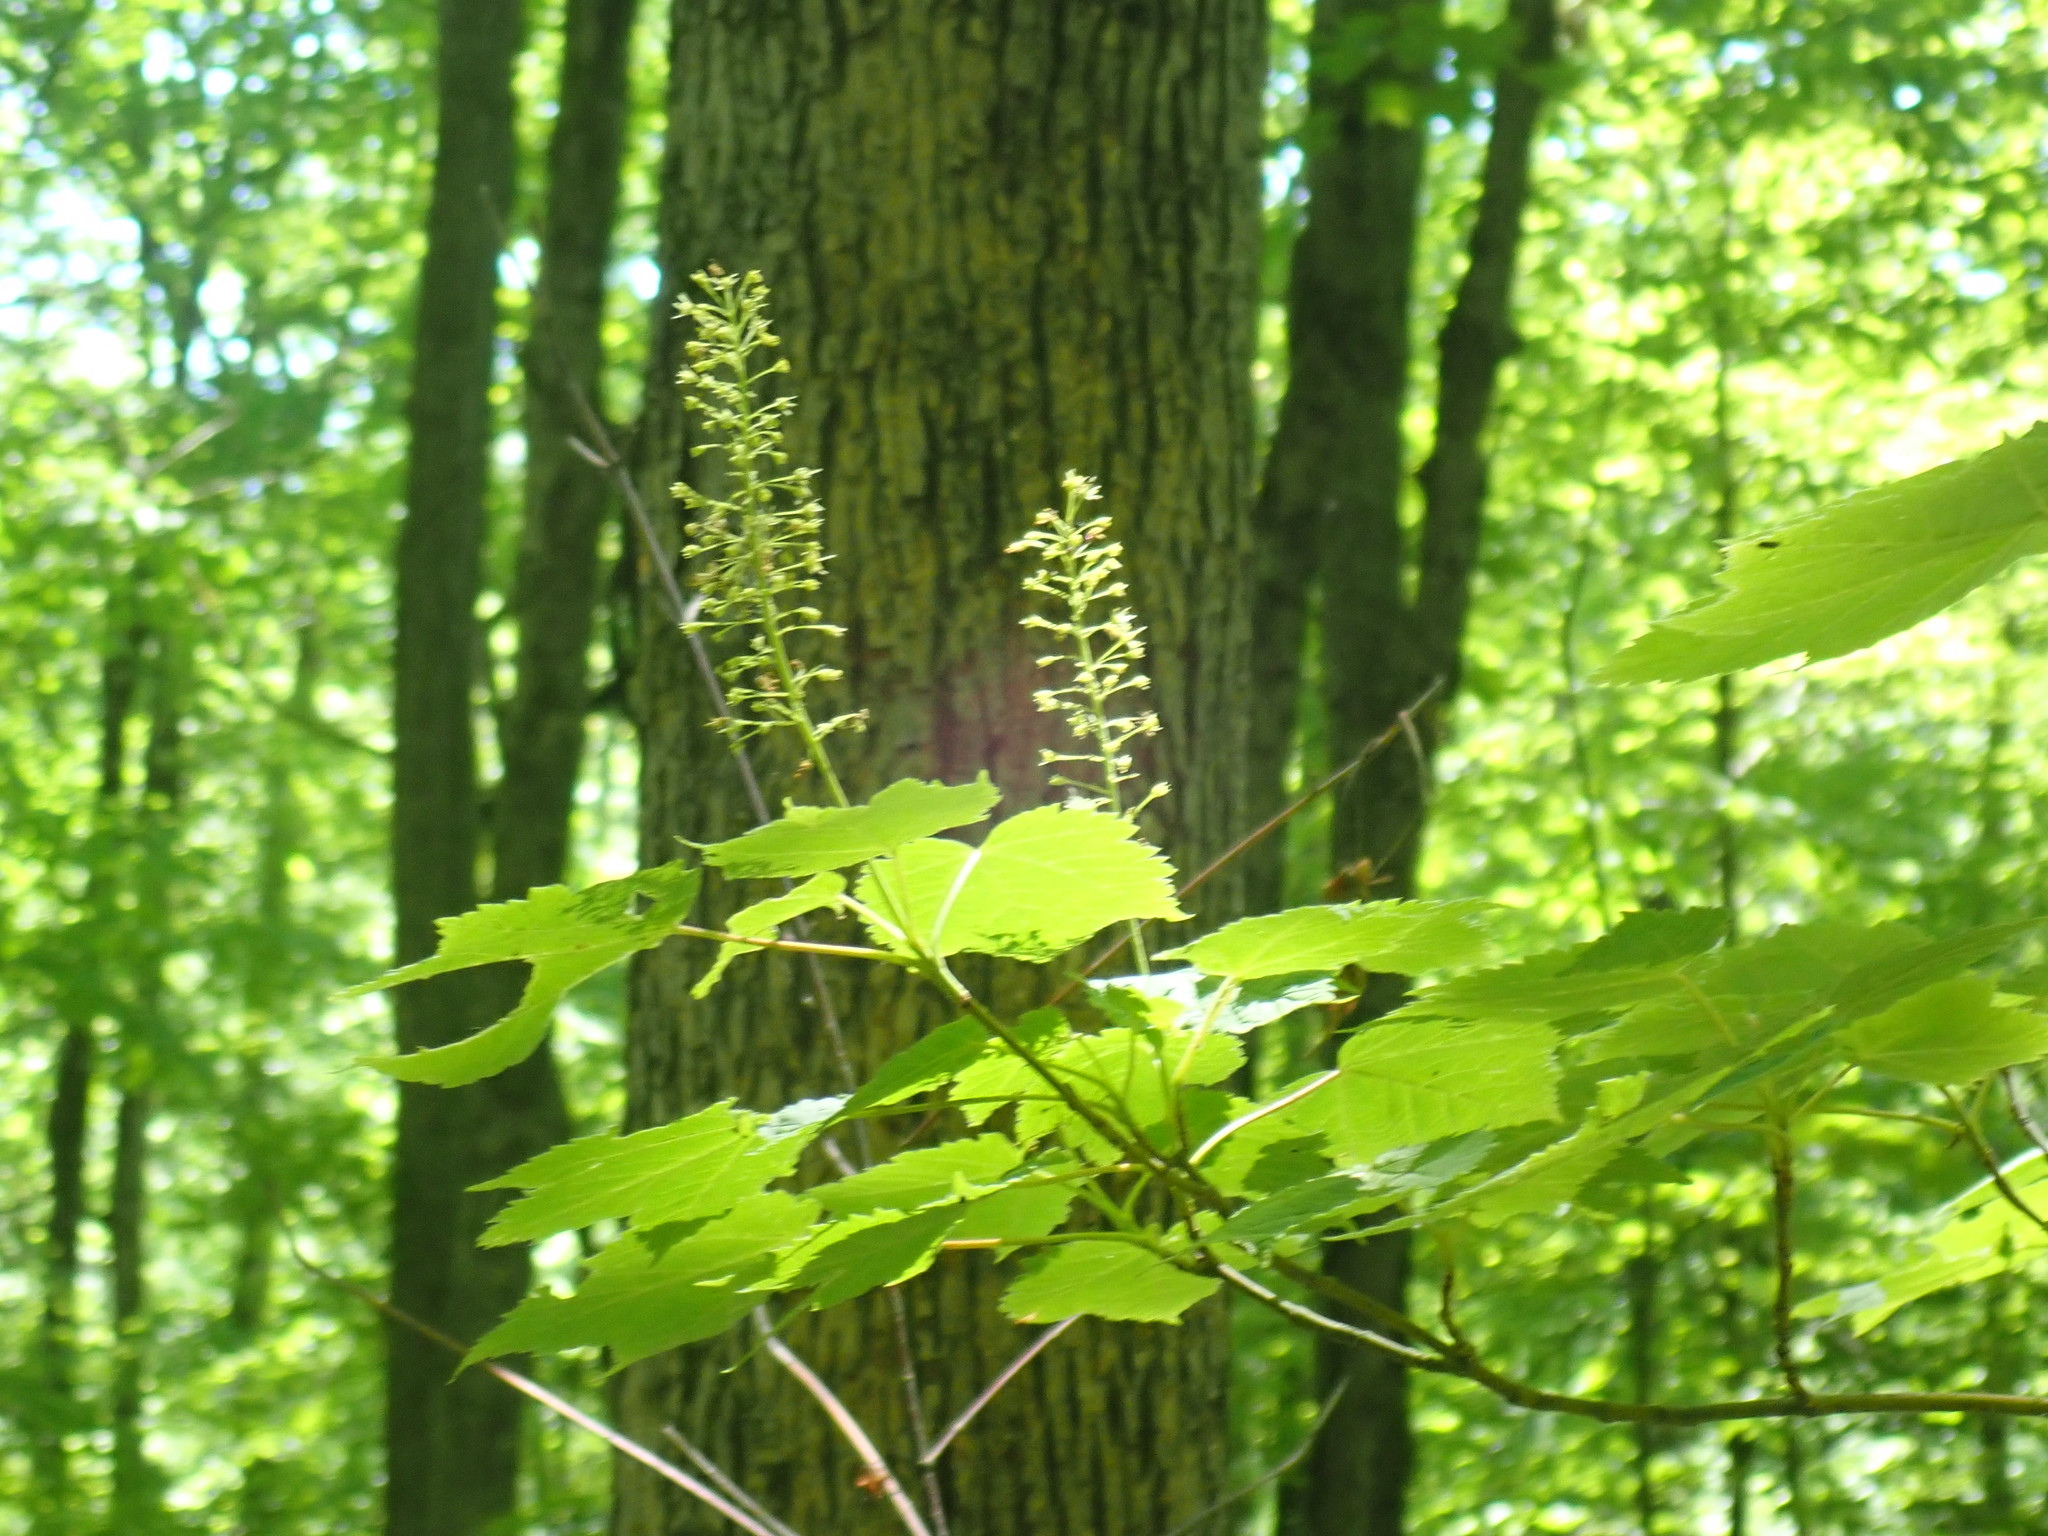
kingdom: Plantae
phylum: Tracheophyta
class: Magnoliopsida
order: Sapindales
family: Sapindaceae
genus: Acer
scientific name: Acer spicatum
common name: Mountain maple
